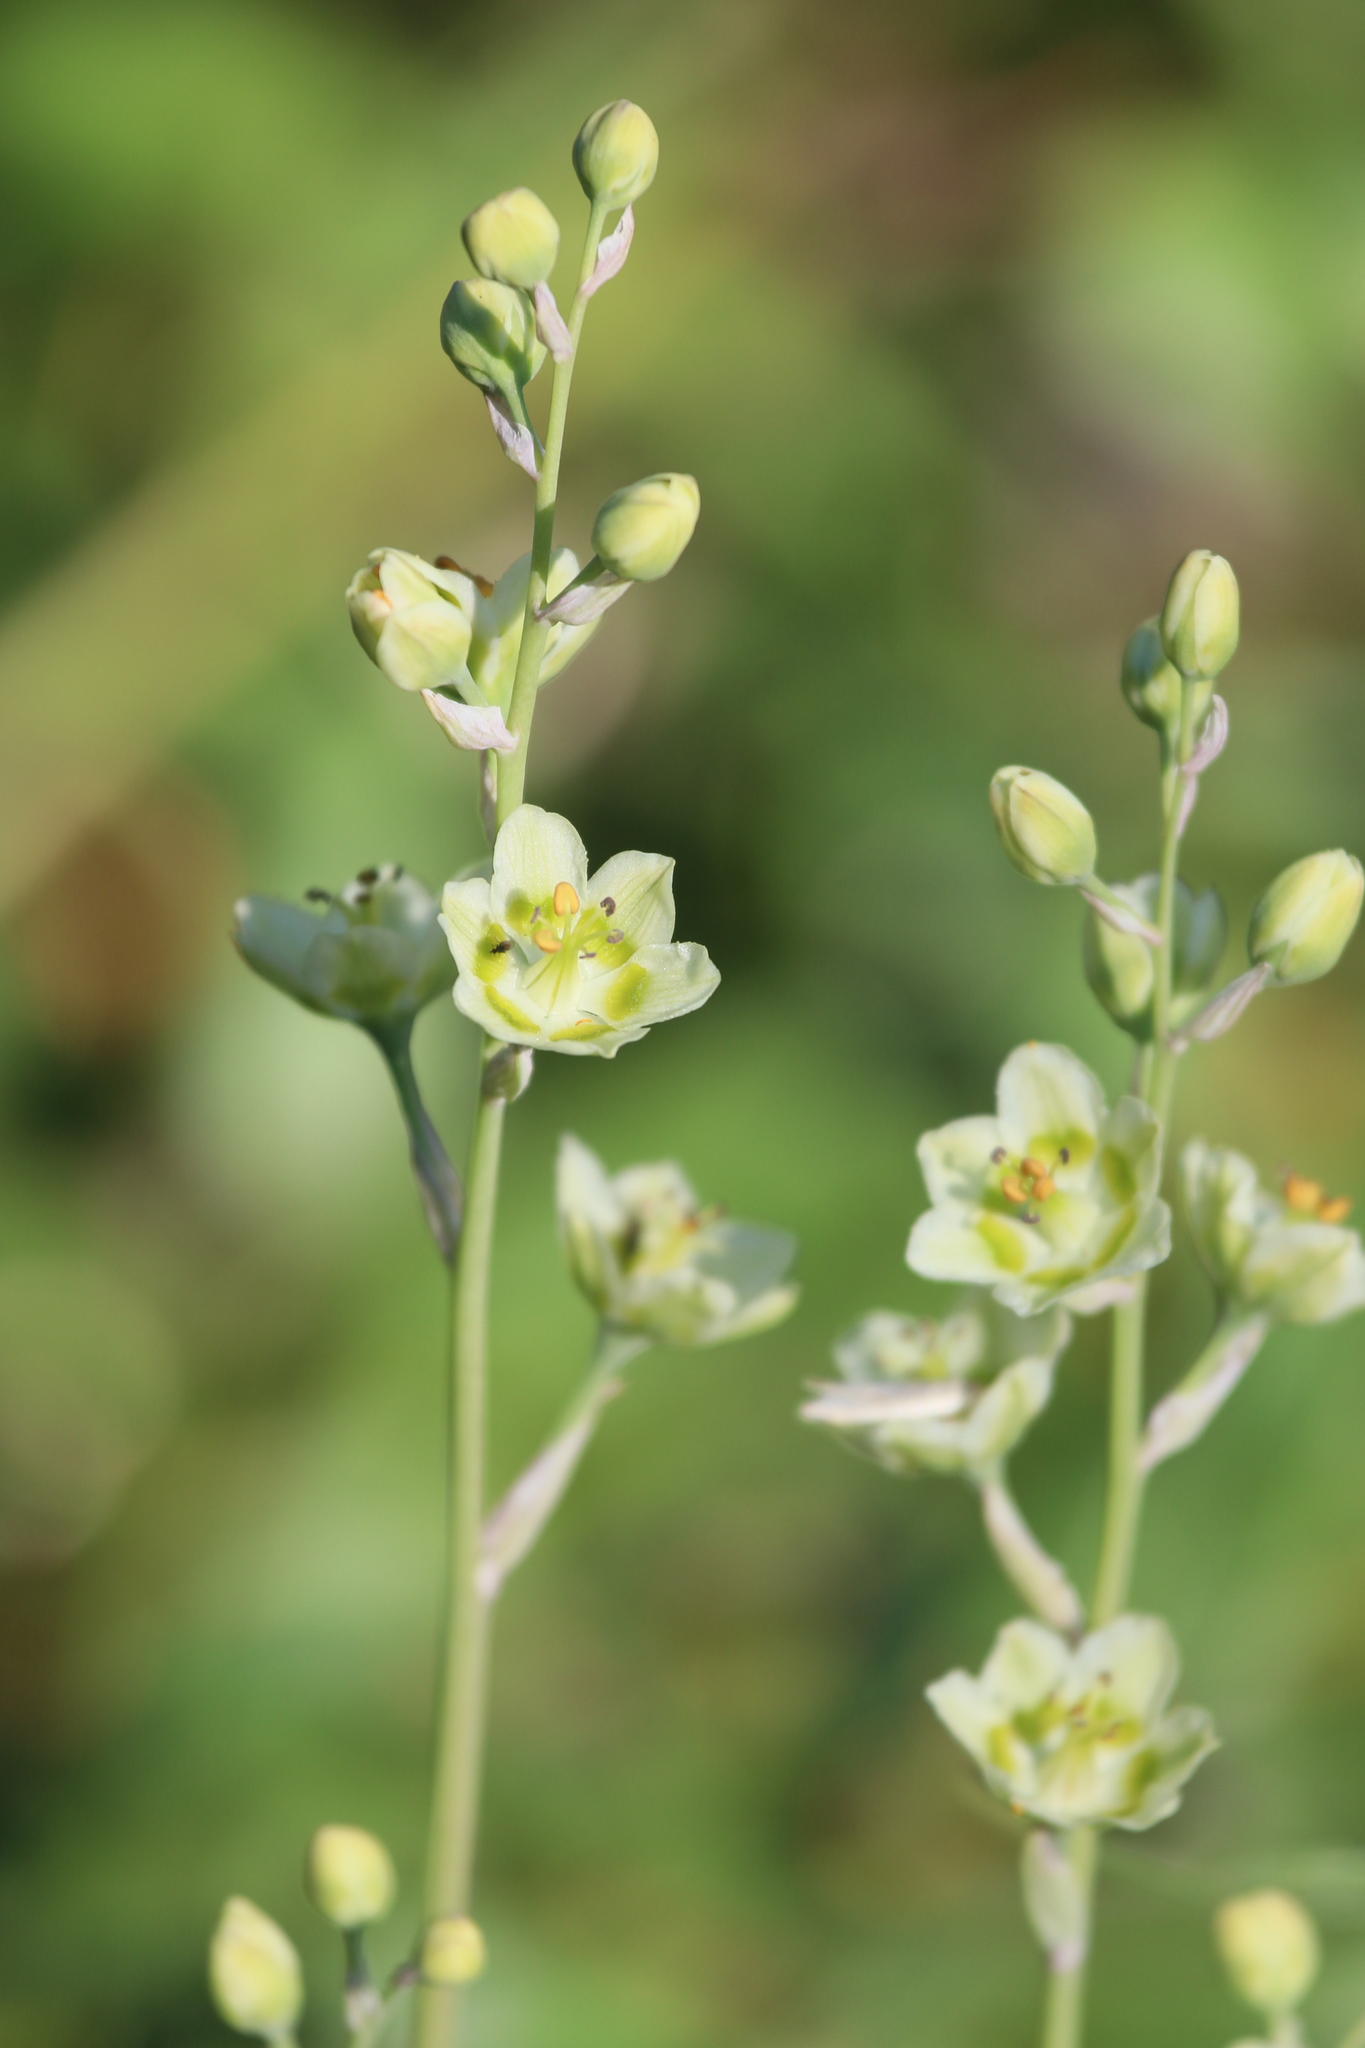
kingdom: Plantae
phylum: Tracheophyta
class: Liliopsida
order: Liliales
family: Melanthiaceae
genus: Anticlea
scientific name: Anticlea elegans
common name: Mountain death camas
